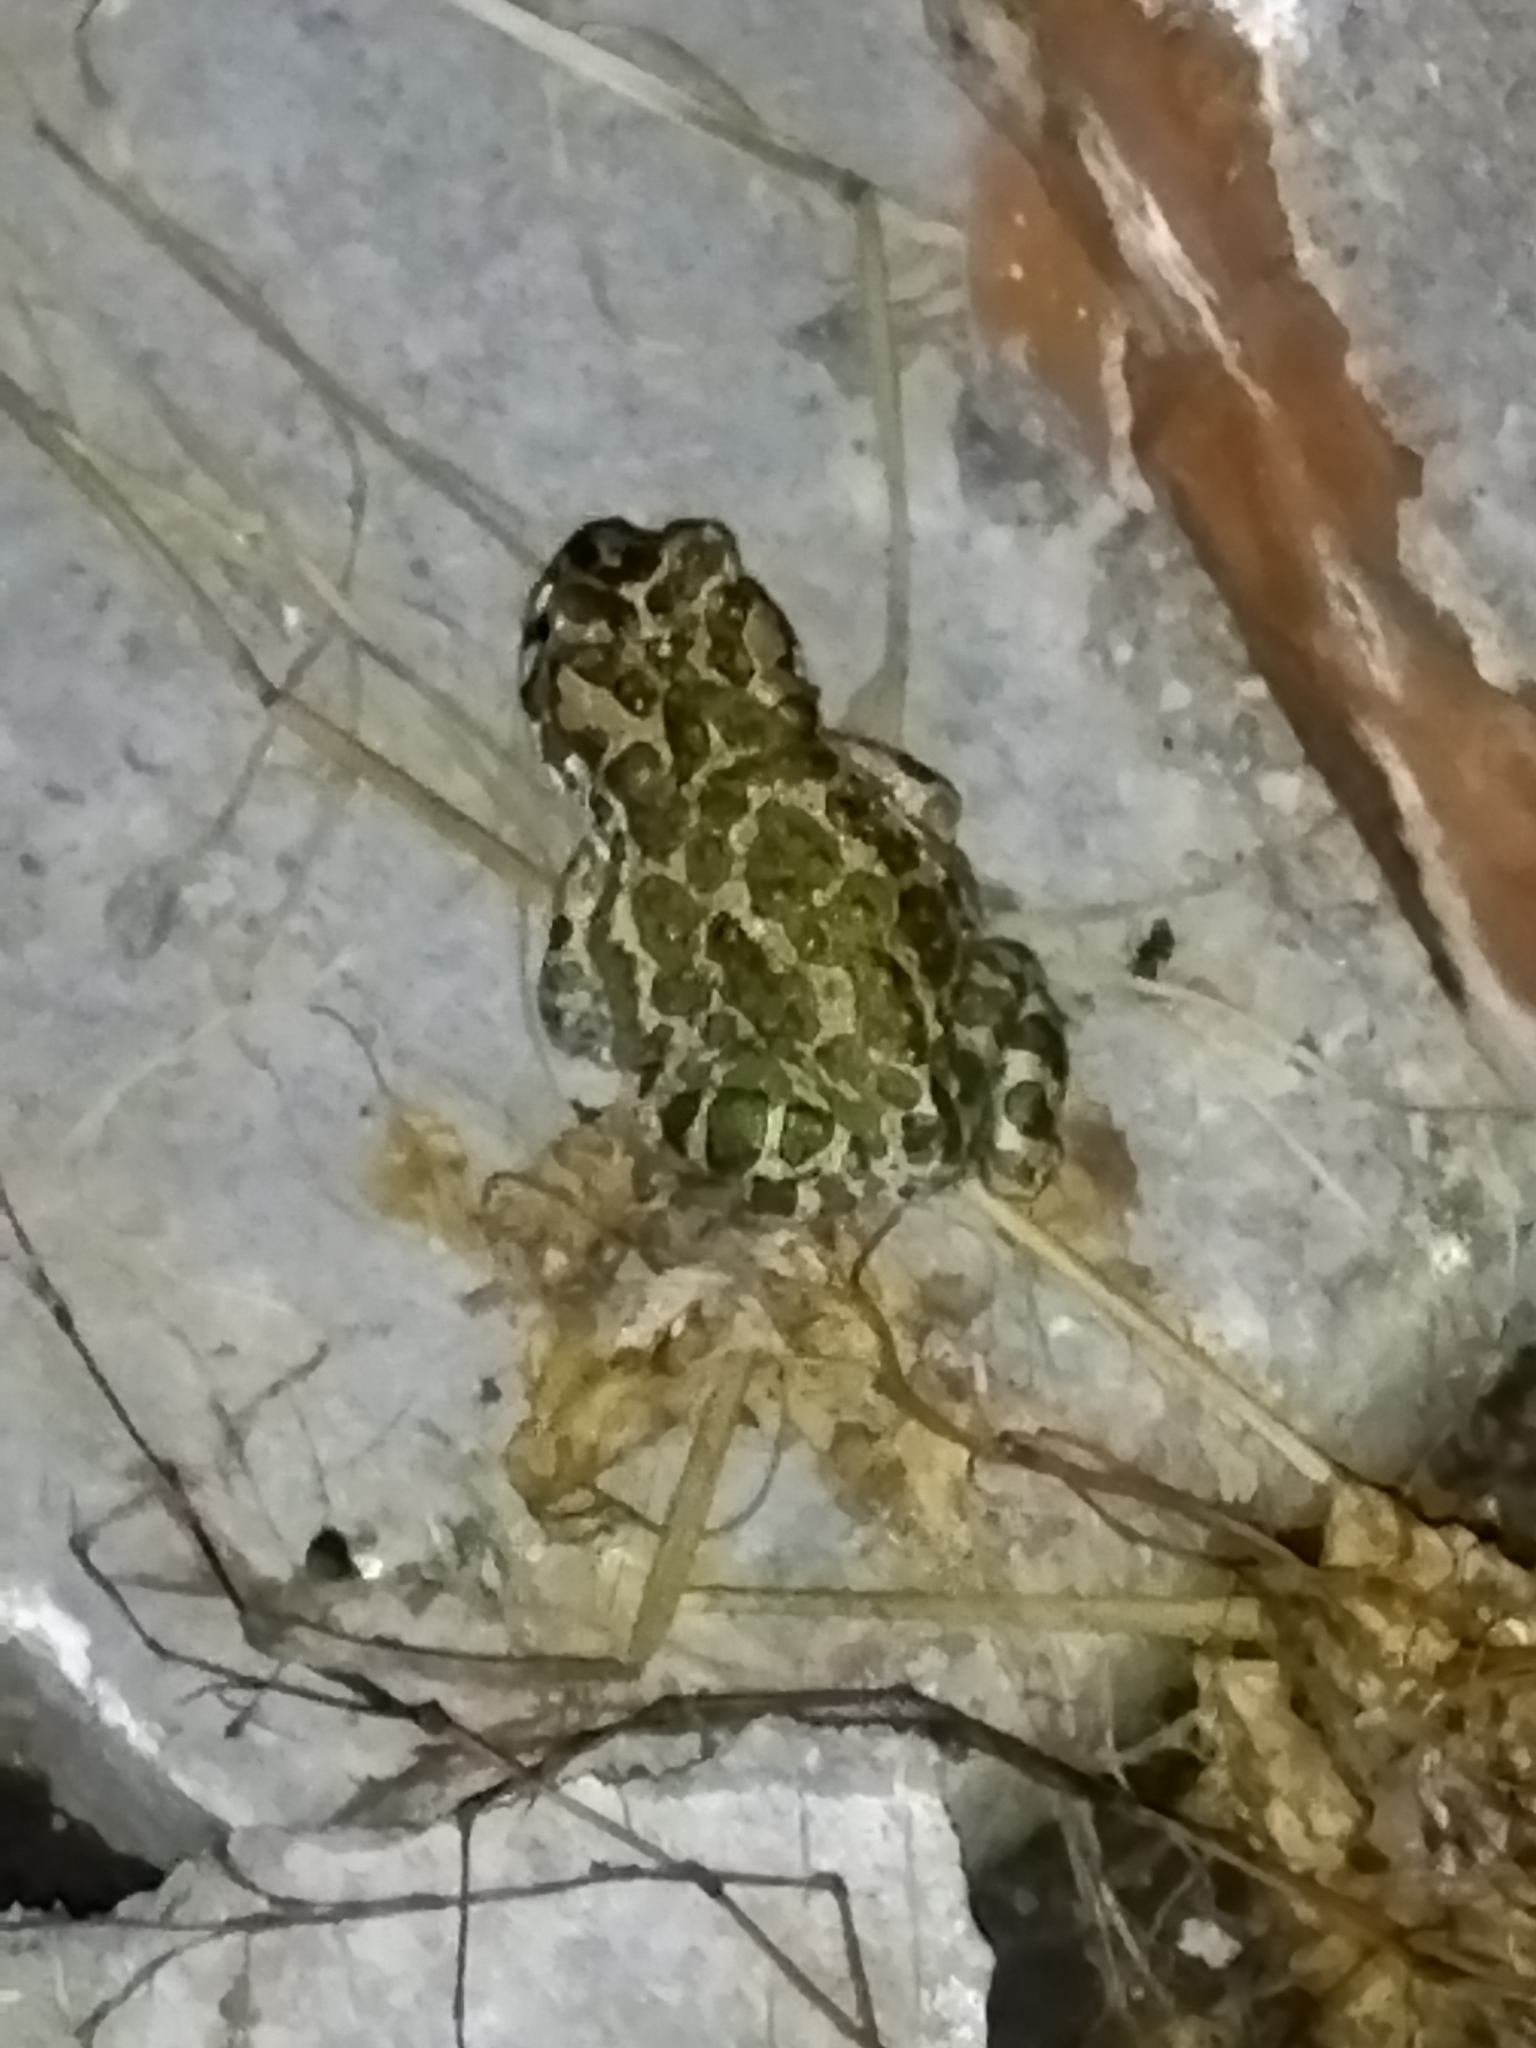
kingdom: Animalia
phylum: Chordata
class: Amphibia
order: Anura
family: Bufonidae
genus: Bufotes
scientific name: Bufotes viridis
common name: European green toad
